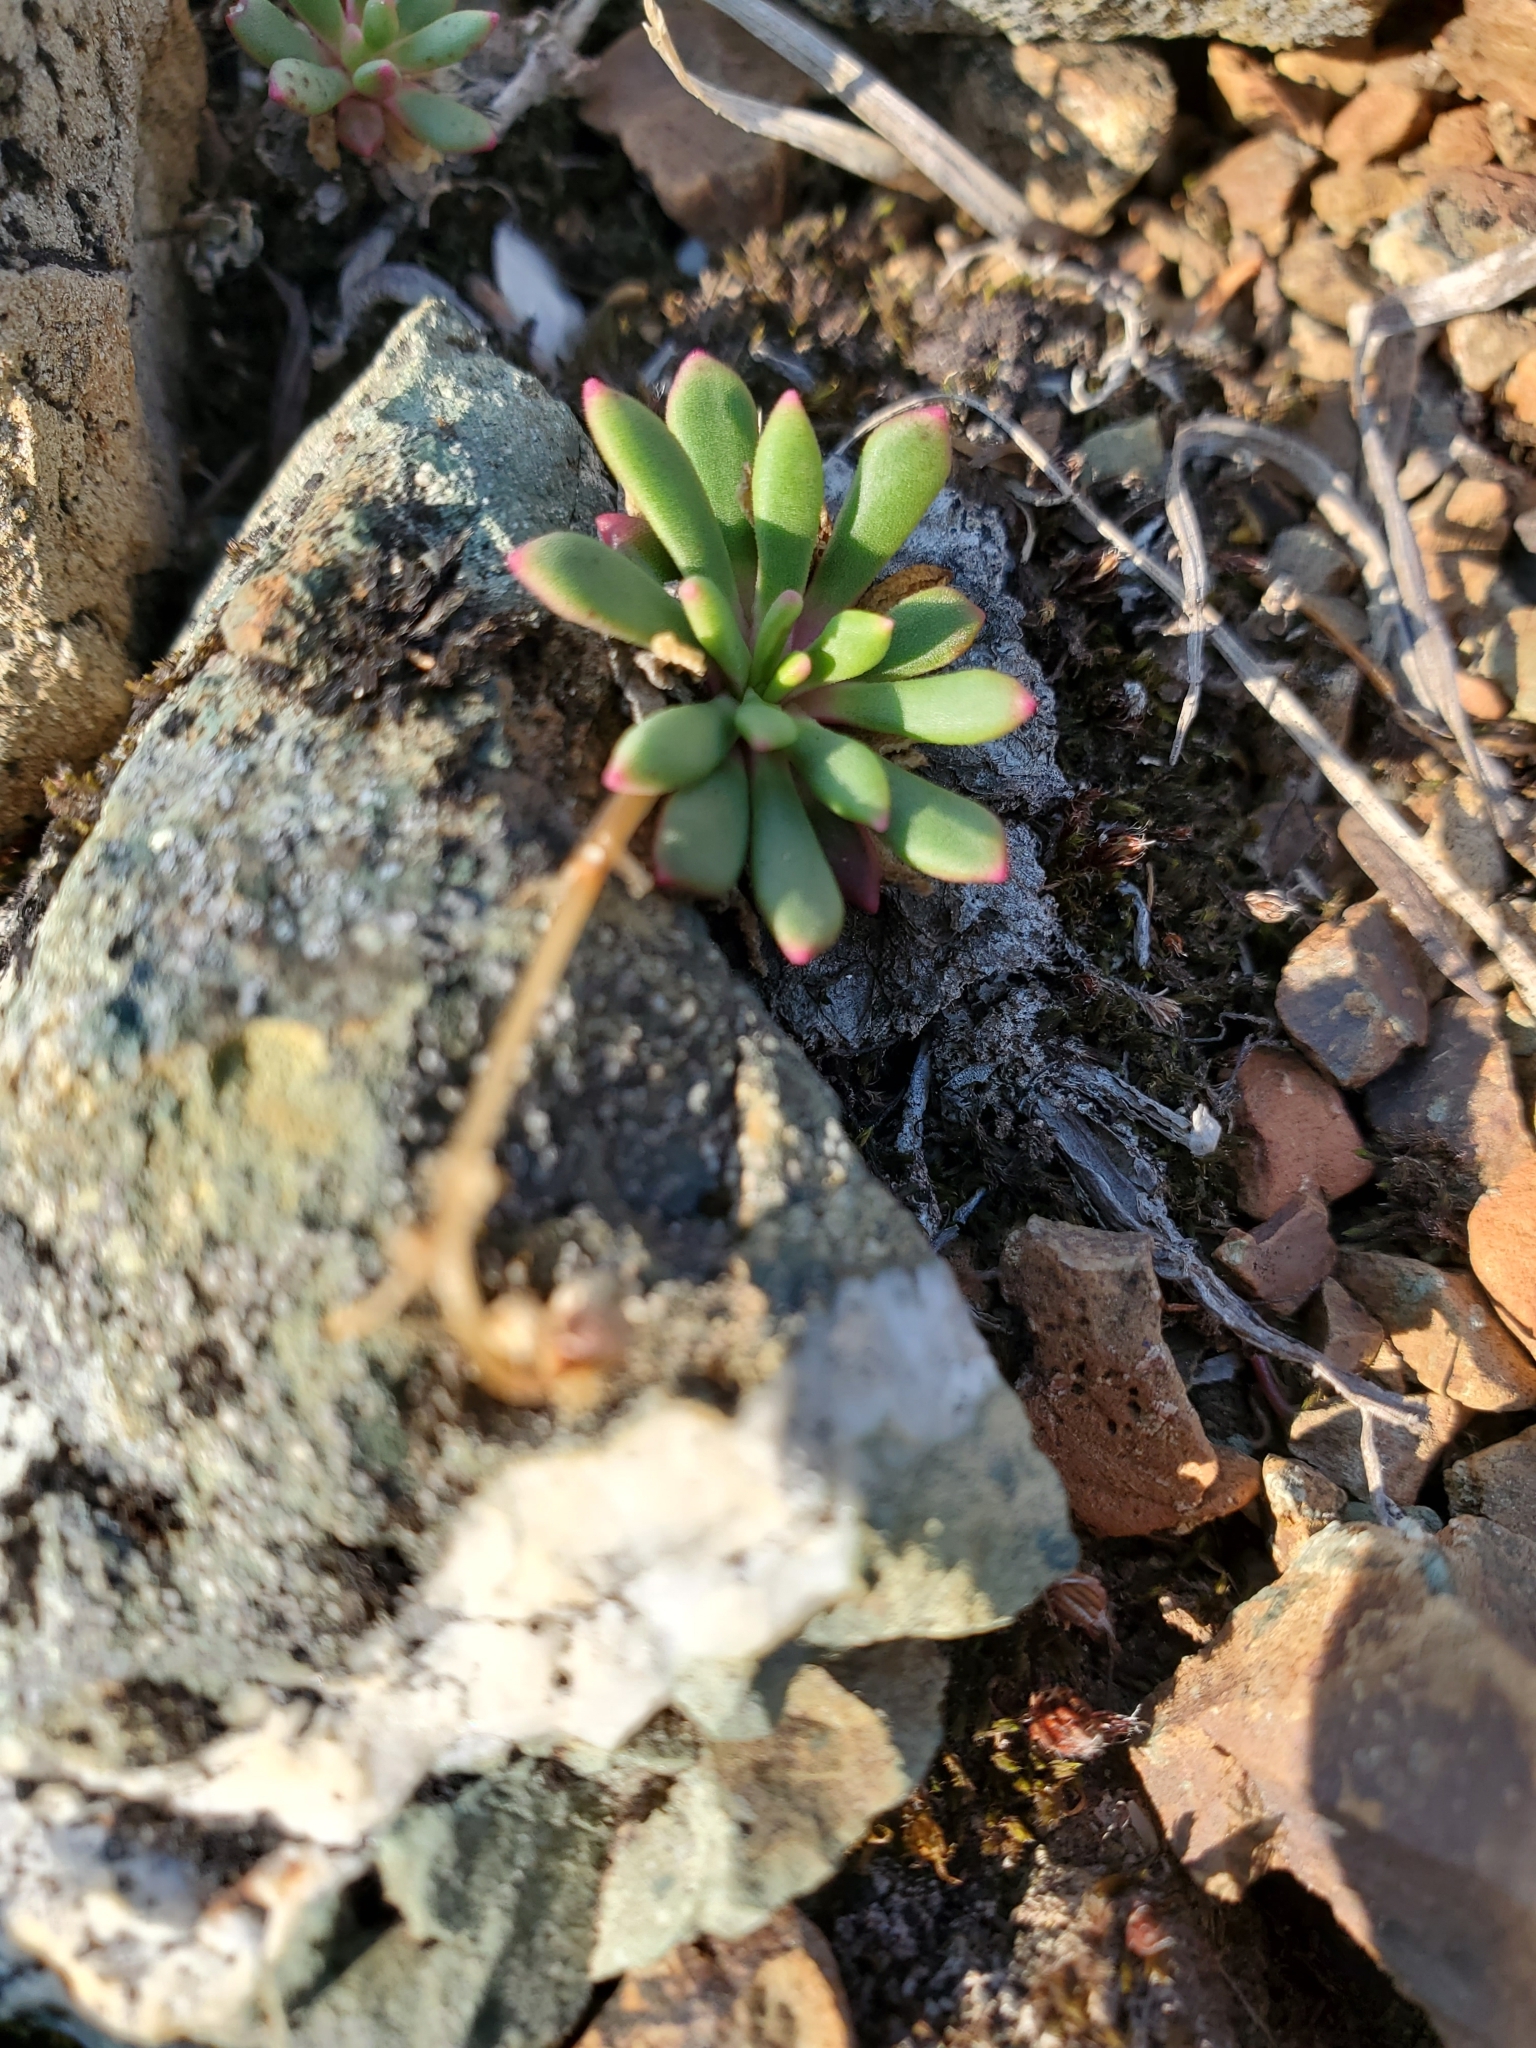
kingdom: Plantae
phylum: Tracheophyta
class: Magnoliopsida
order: Caryophyllales
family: Montiaceae
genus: Lewisia
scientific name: Lewisia columbiana
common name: Columbia lewisia
